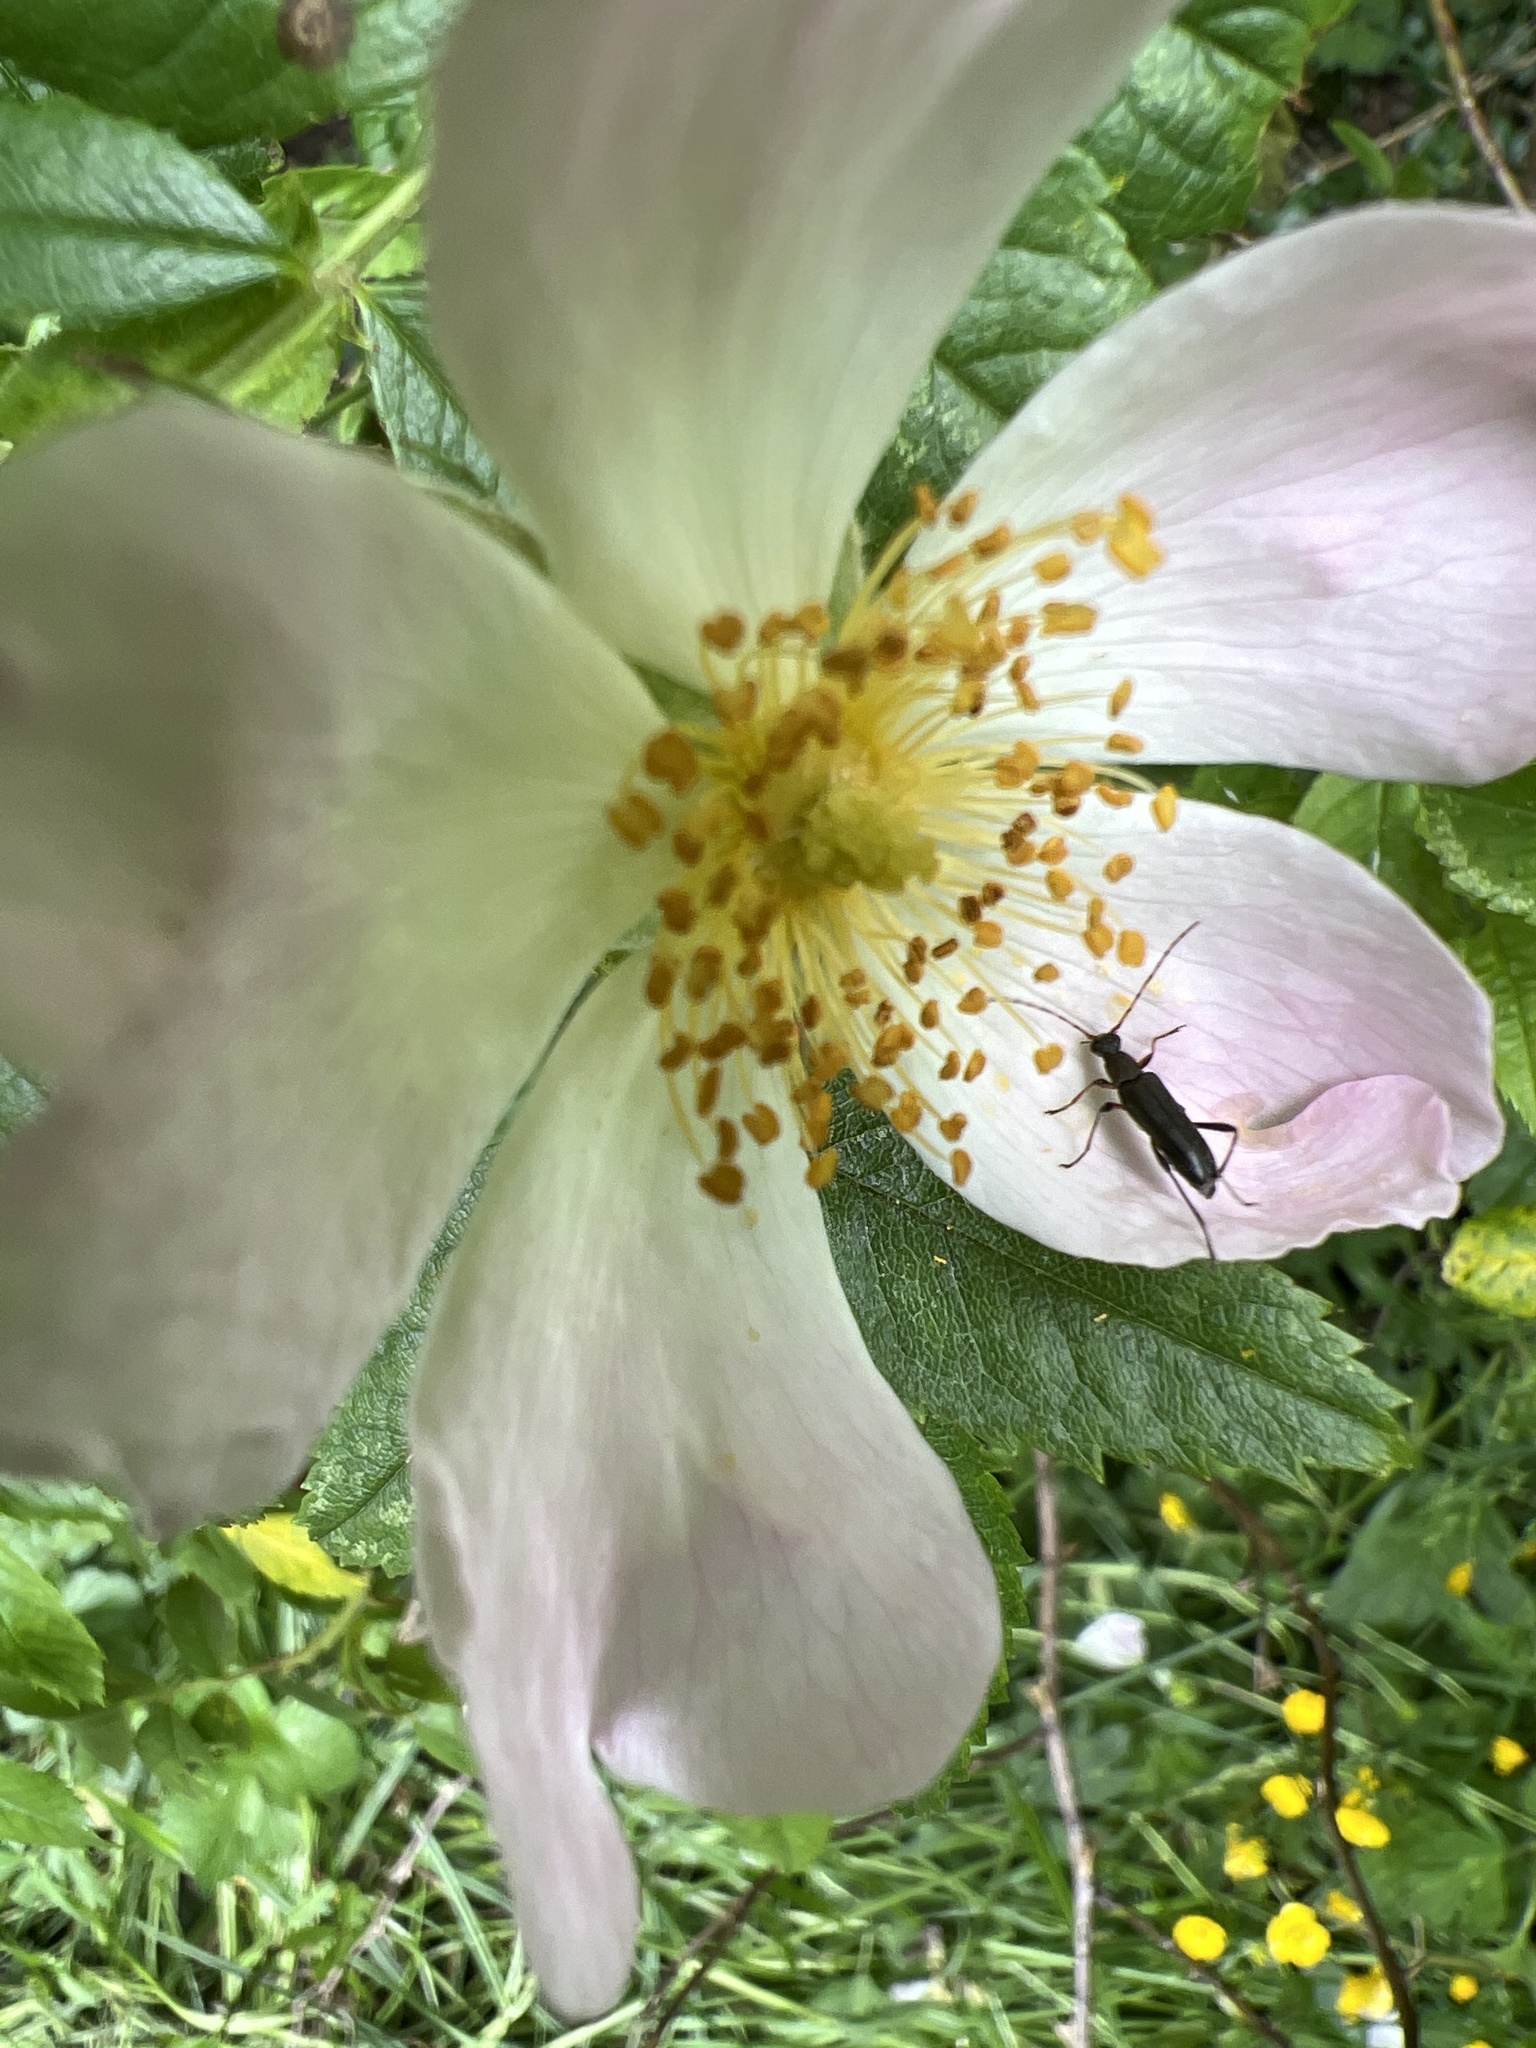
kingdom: Animalia
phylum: Arthropoda
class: Insecta
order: Coleoptera
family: Cerambycidae
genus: Grammoptera
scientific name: Grammoptera ruficornis
